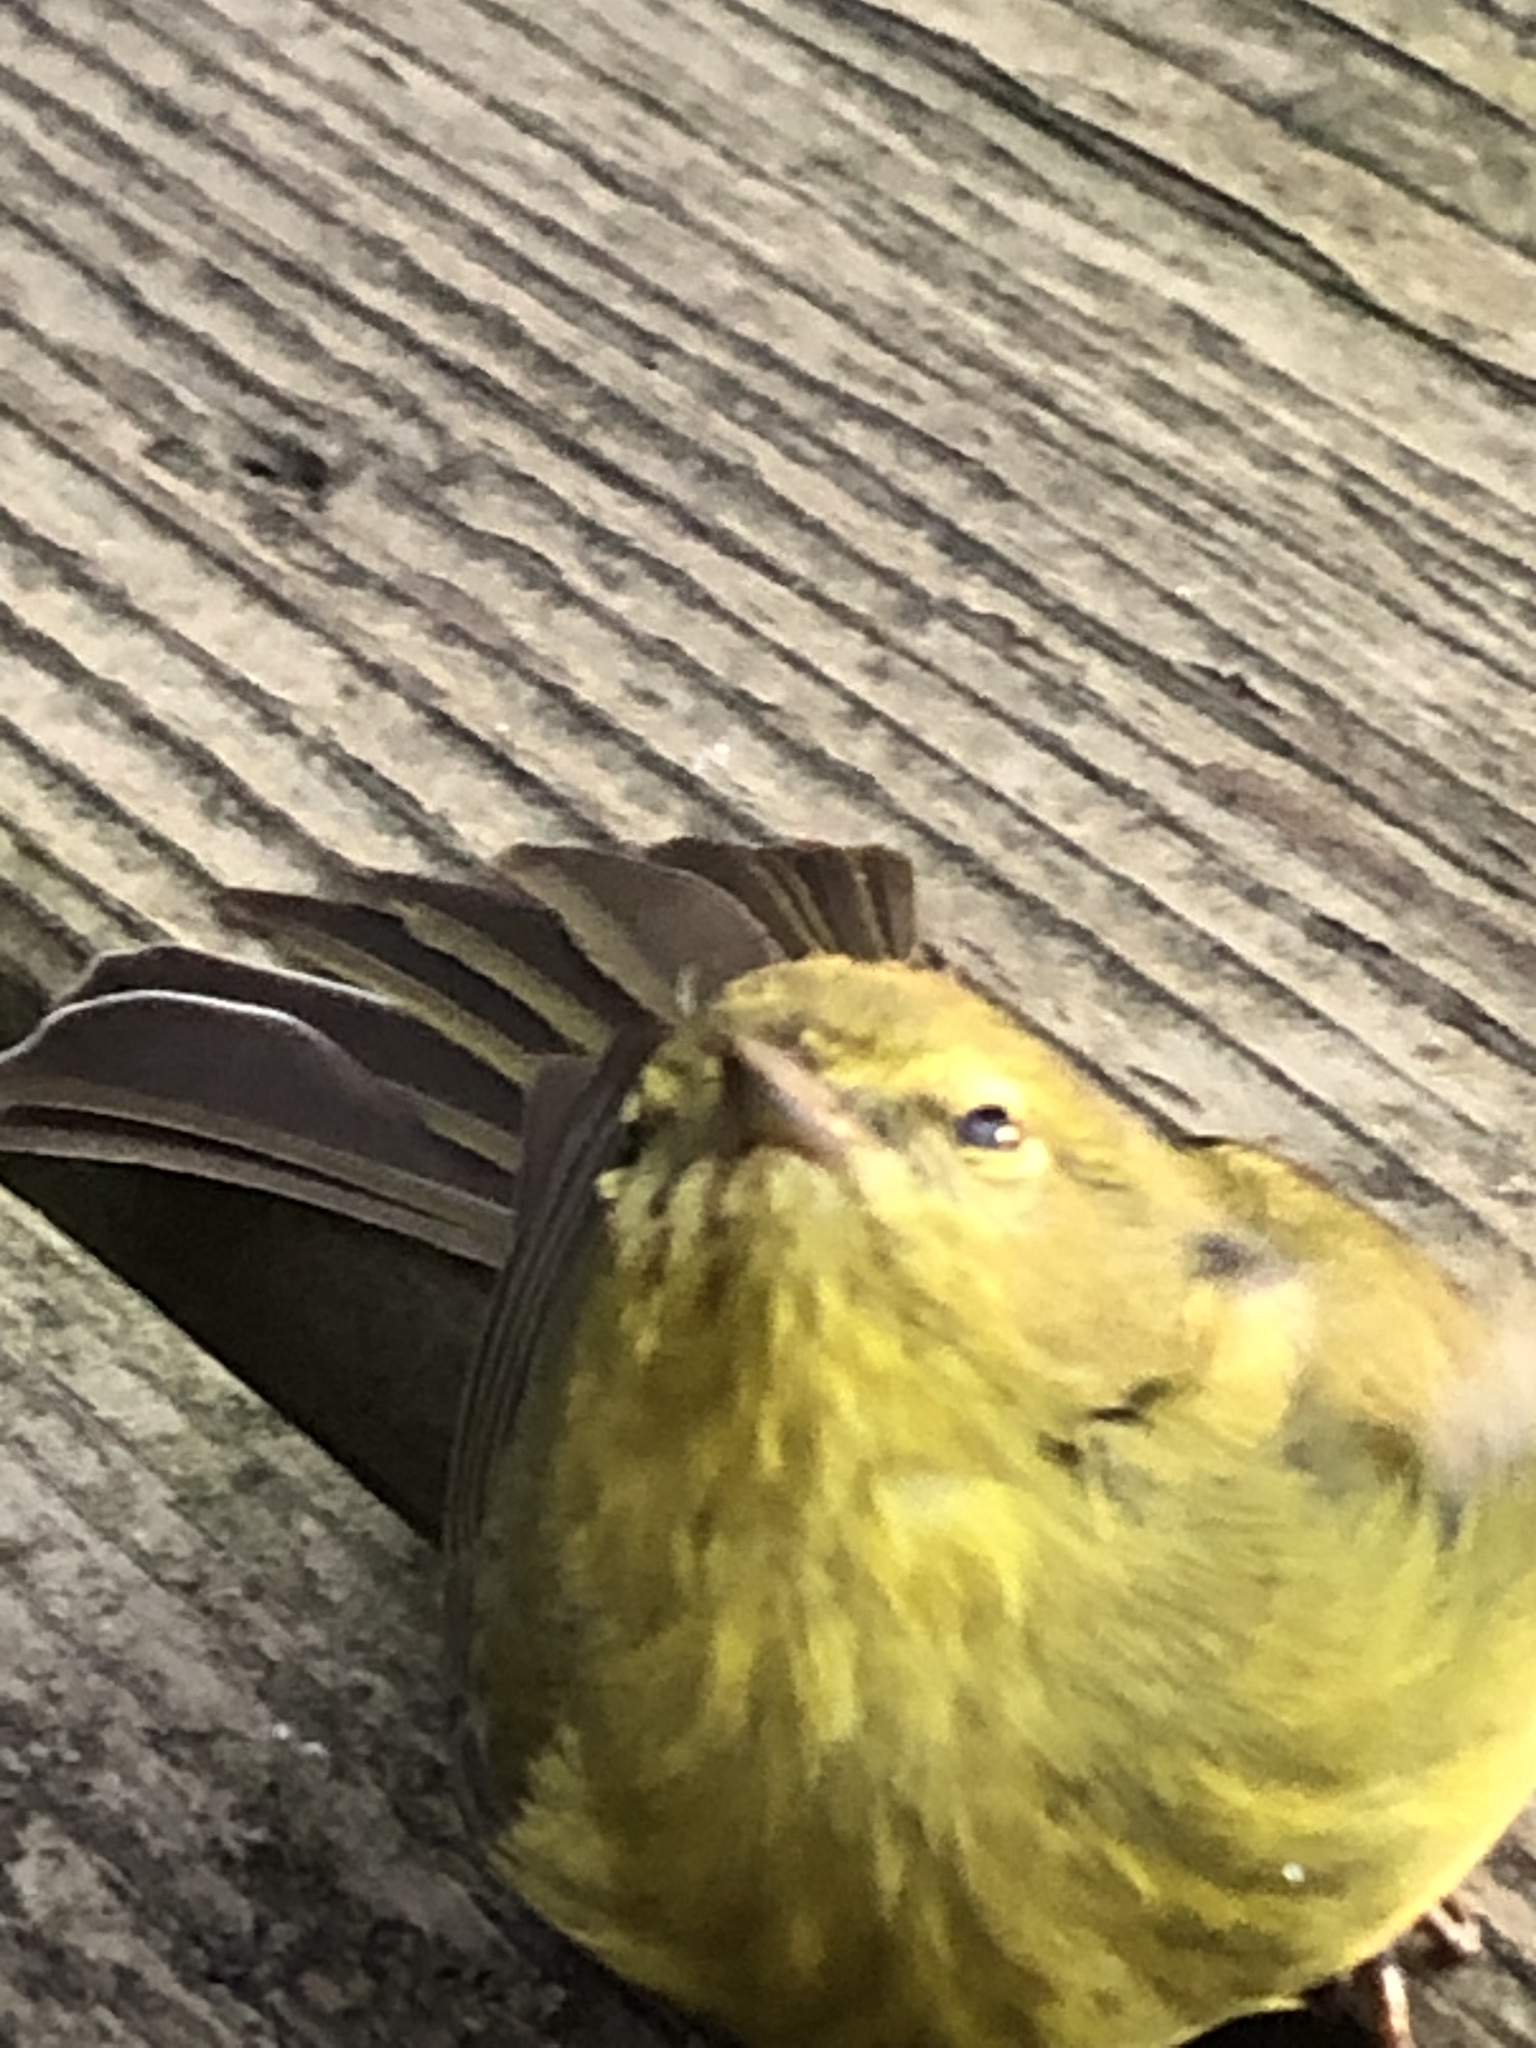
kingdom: Animalia
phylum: Chordata
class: Aves
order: Passeriformes
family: Parulidae
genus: Leiothlypis
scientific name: Leiothlypis celata
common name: Orange-crowned warbler
